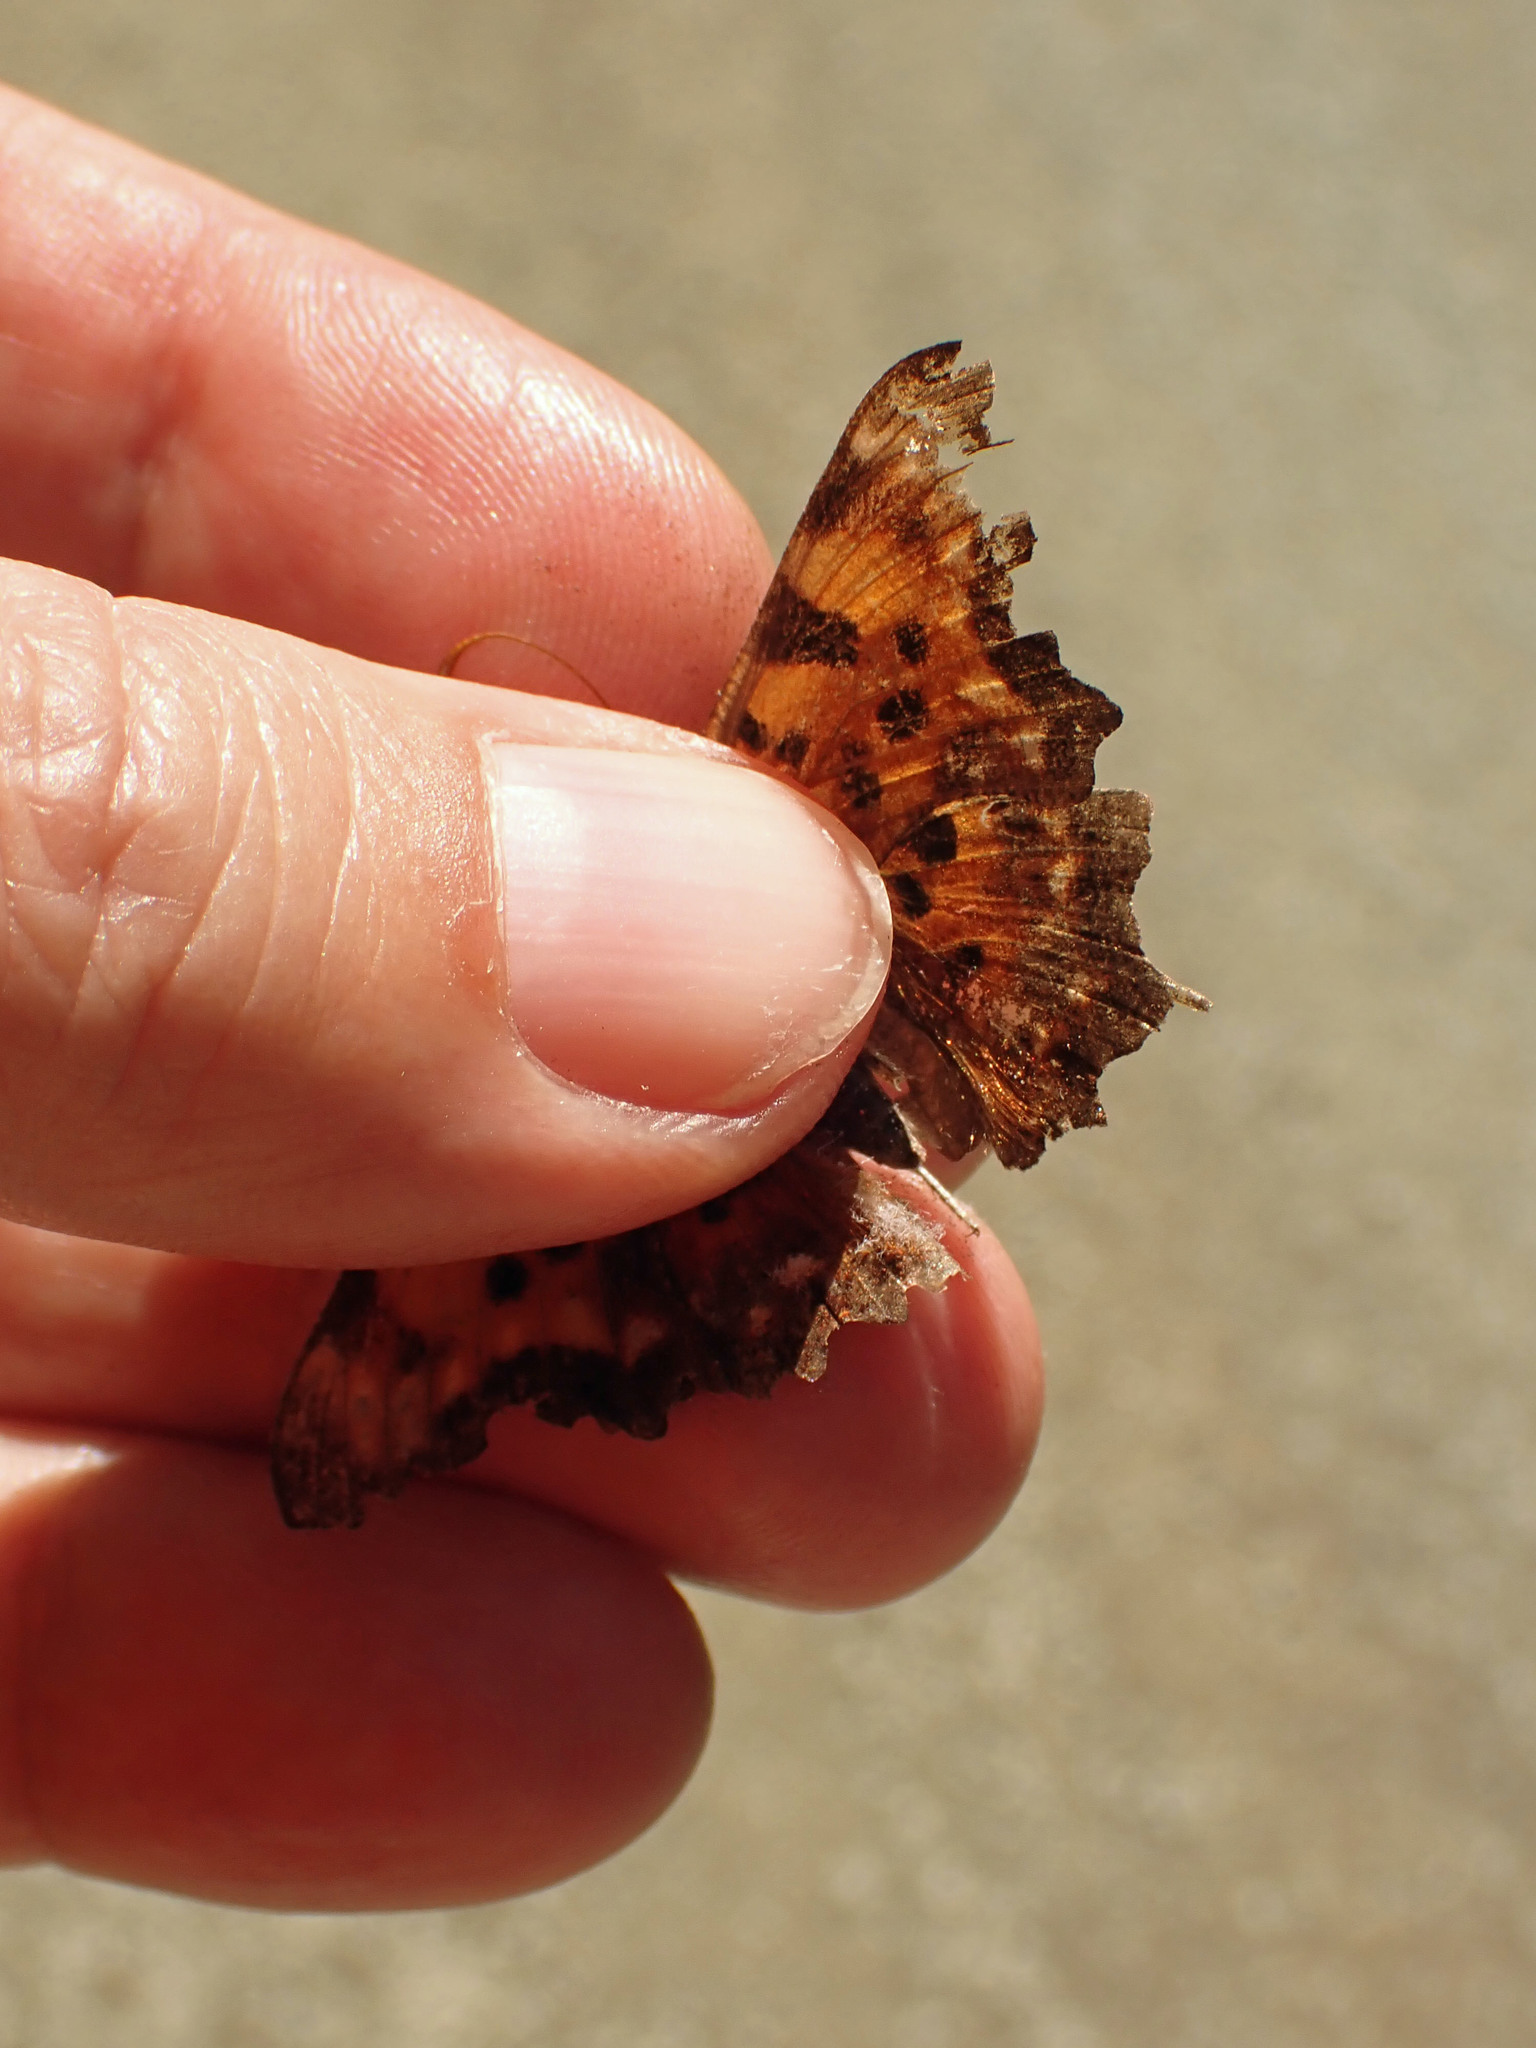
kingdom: Animalia
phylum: Arthropoda
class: Insecta
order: Lepidoptera
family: Nymphalidae
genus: Polygonia
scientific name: Polygonia faunus
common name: Green comma
